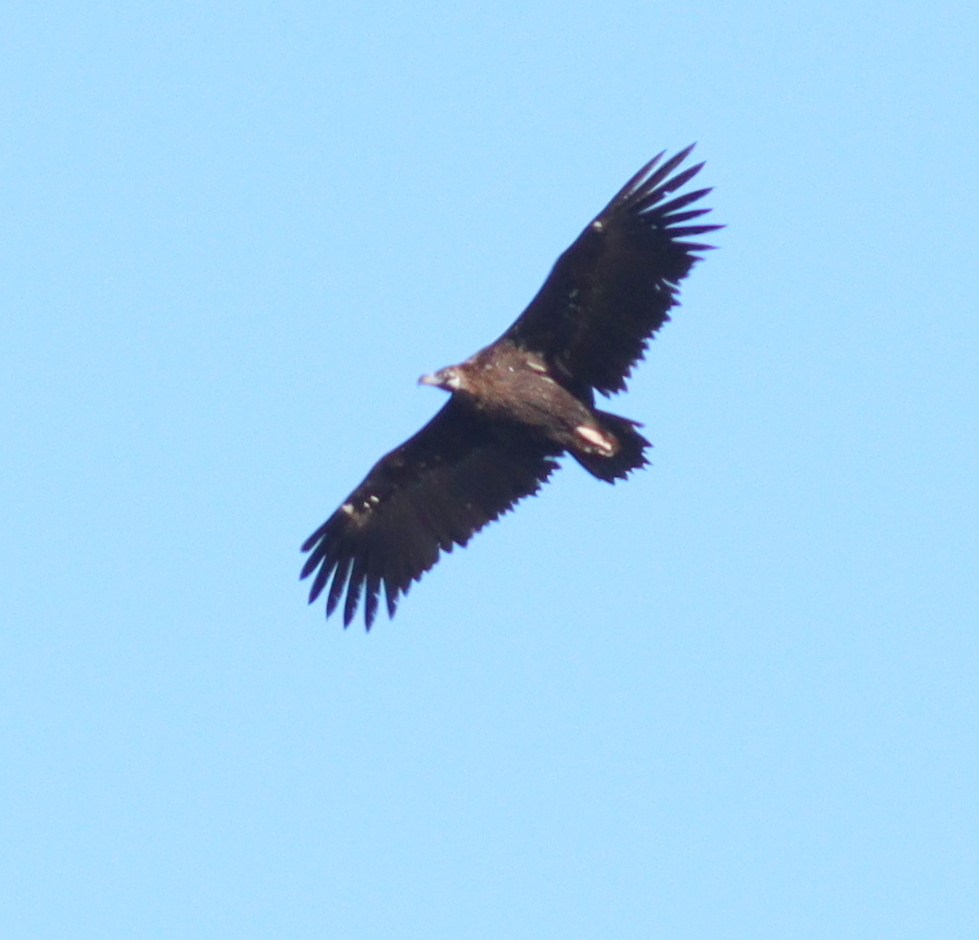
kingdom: Animalia
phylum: Chordata
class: Aves
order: Accipitriformes
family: Accipitridae
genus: Aegypius
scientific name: Aegypius monachus
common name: Cinereous vulture
